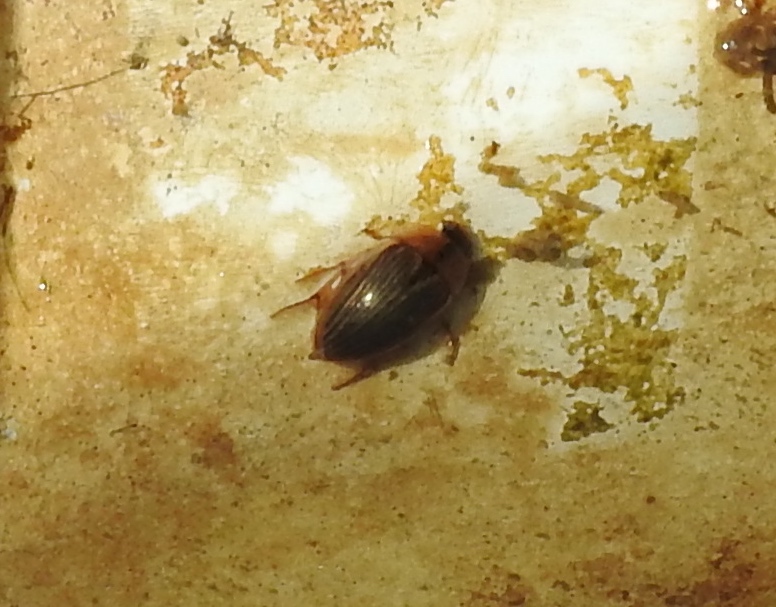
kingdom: Animalia
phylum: Arthropoda
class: Insecta
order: Coleoptera
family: Hydrophilidae
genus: Tropisternus
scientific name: Tropisternus collaris
